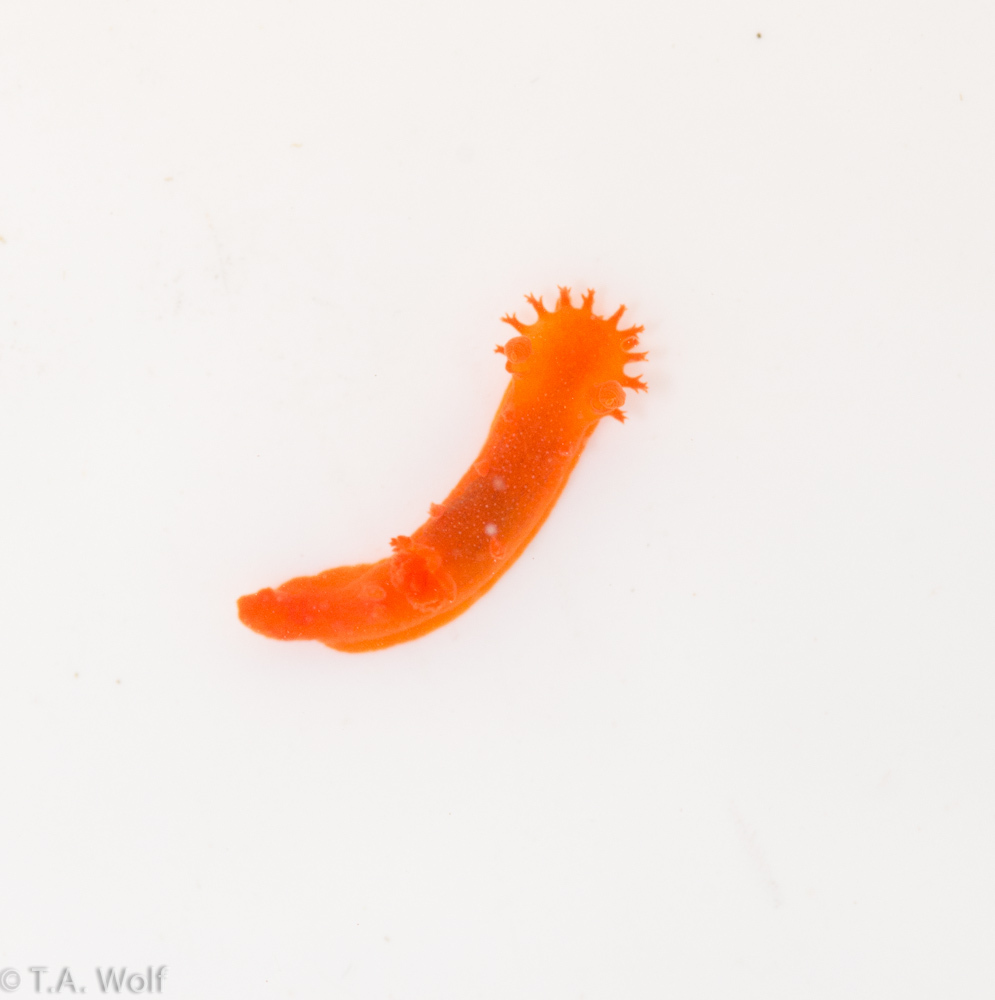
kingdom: Animalia
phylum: Mollusca
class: Gastropoda
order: Nudibranchia
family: Polyceridae
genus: Triopha
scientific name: Triopha maculata
